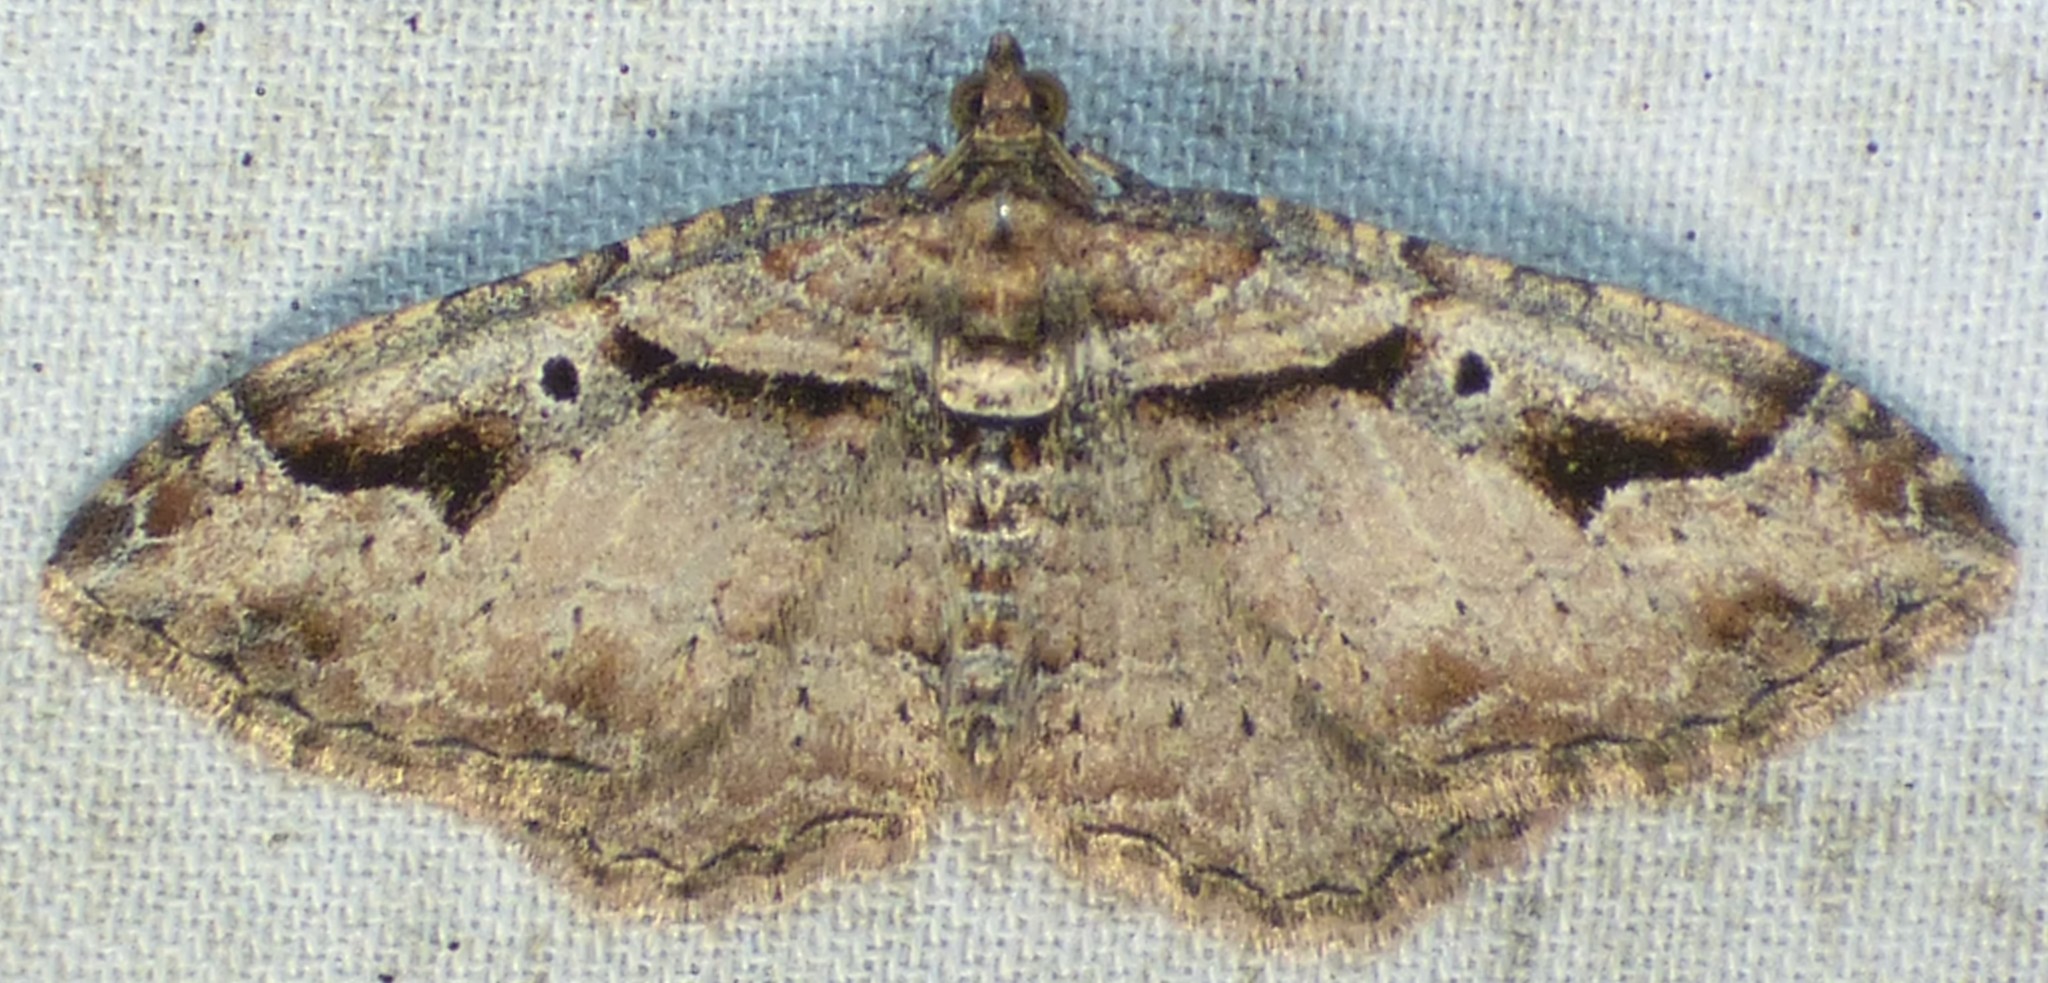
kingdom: Animalia
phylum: Arthropoda
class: Insecta
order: Lepidoptera
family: Geometridae
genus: Costaconvexa
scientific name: Costaconvexa centrostrigaria
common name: Bent-line carpet
